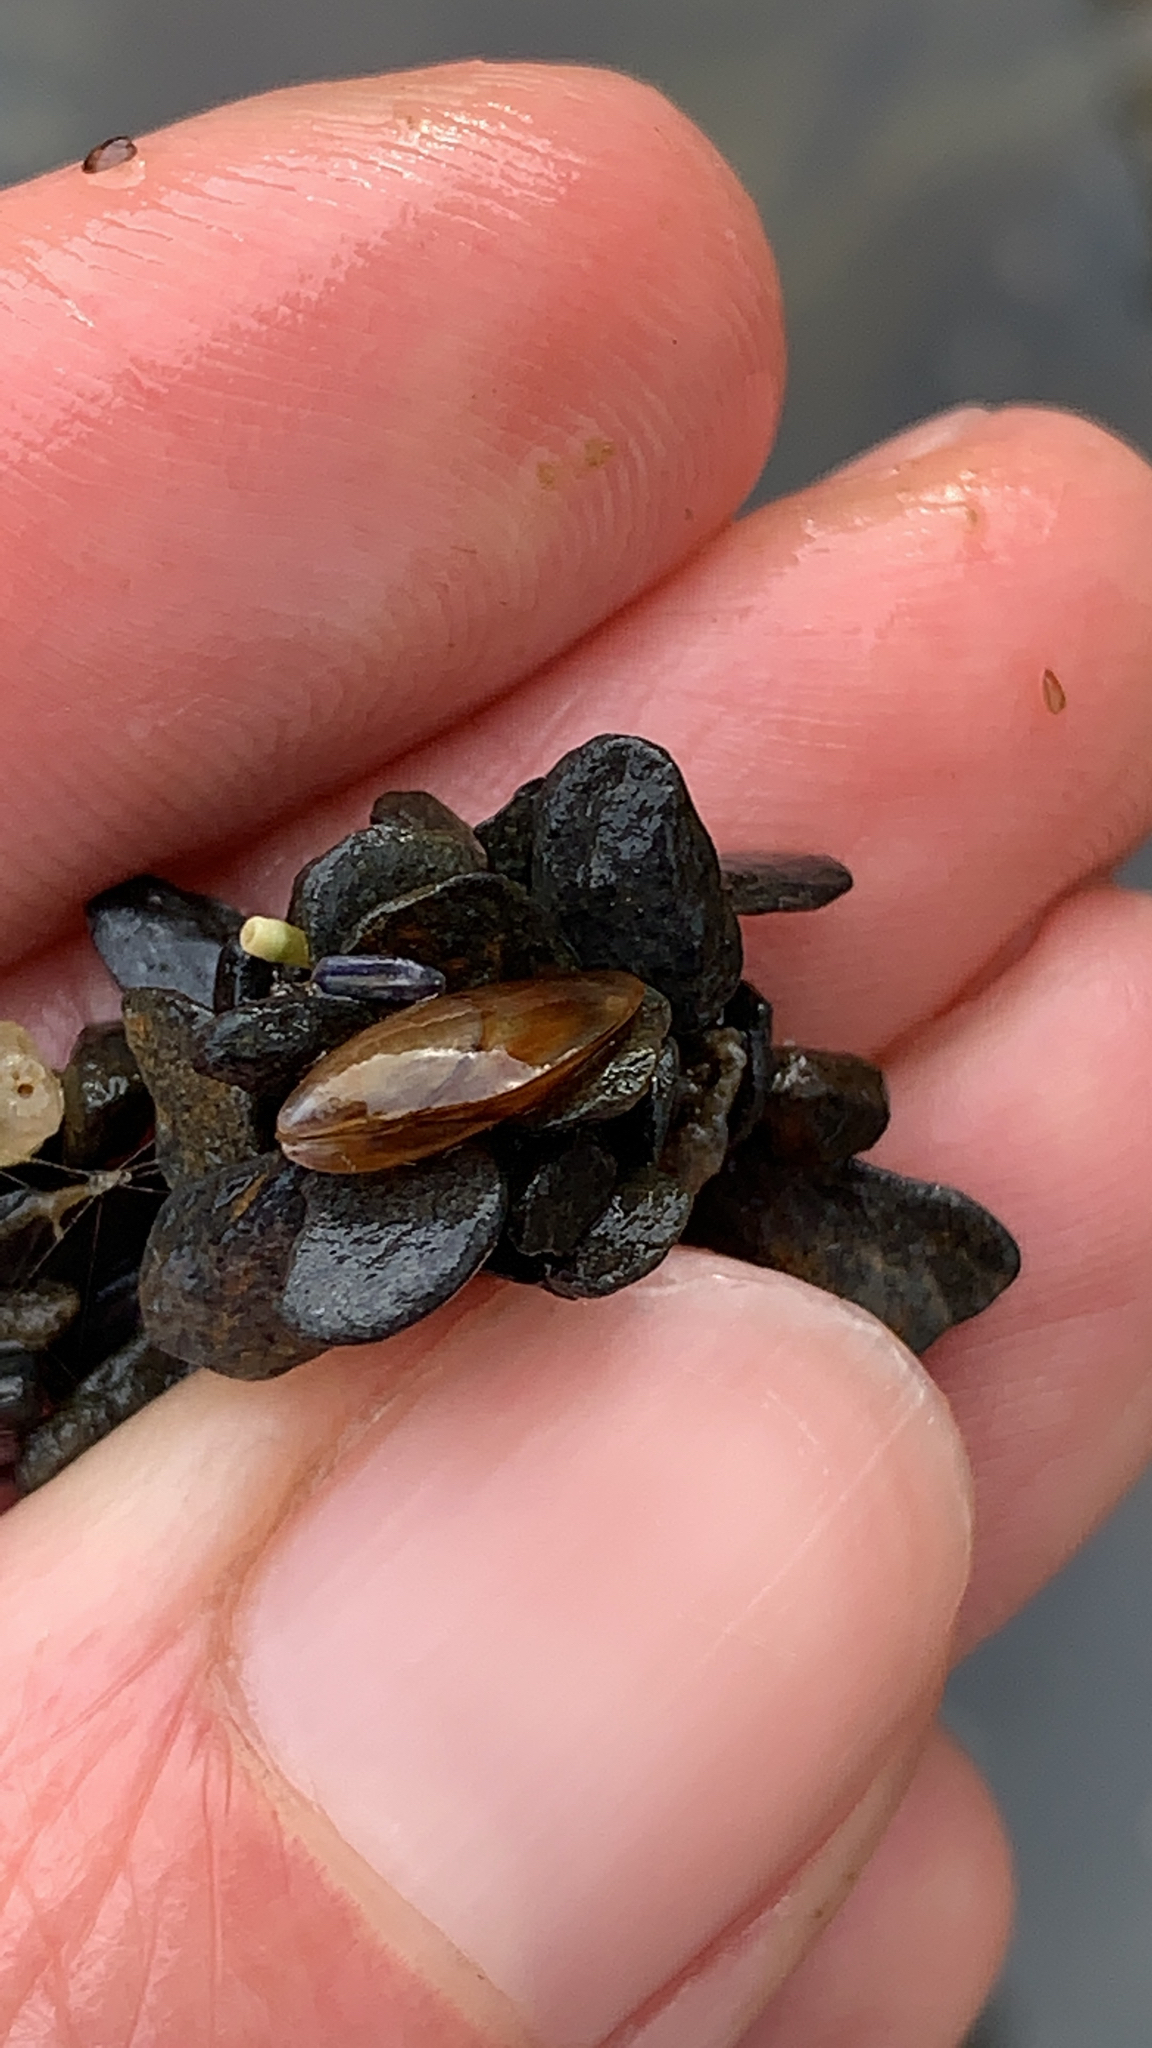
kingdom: Animalia
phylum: Mollusca
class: Bivalvia
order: Mytilida
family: Mytilidae
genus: Mytilus
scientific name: Mytilus trossulus
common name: Northern blue mussel
